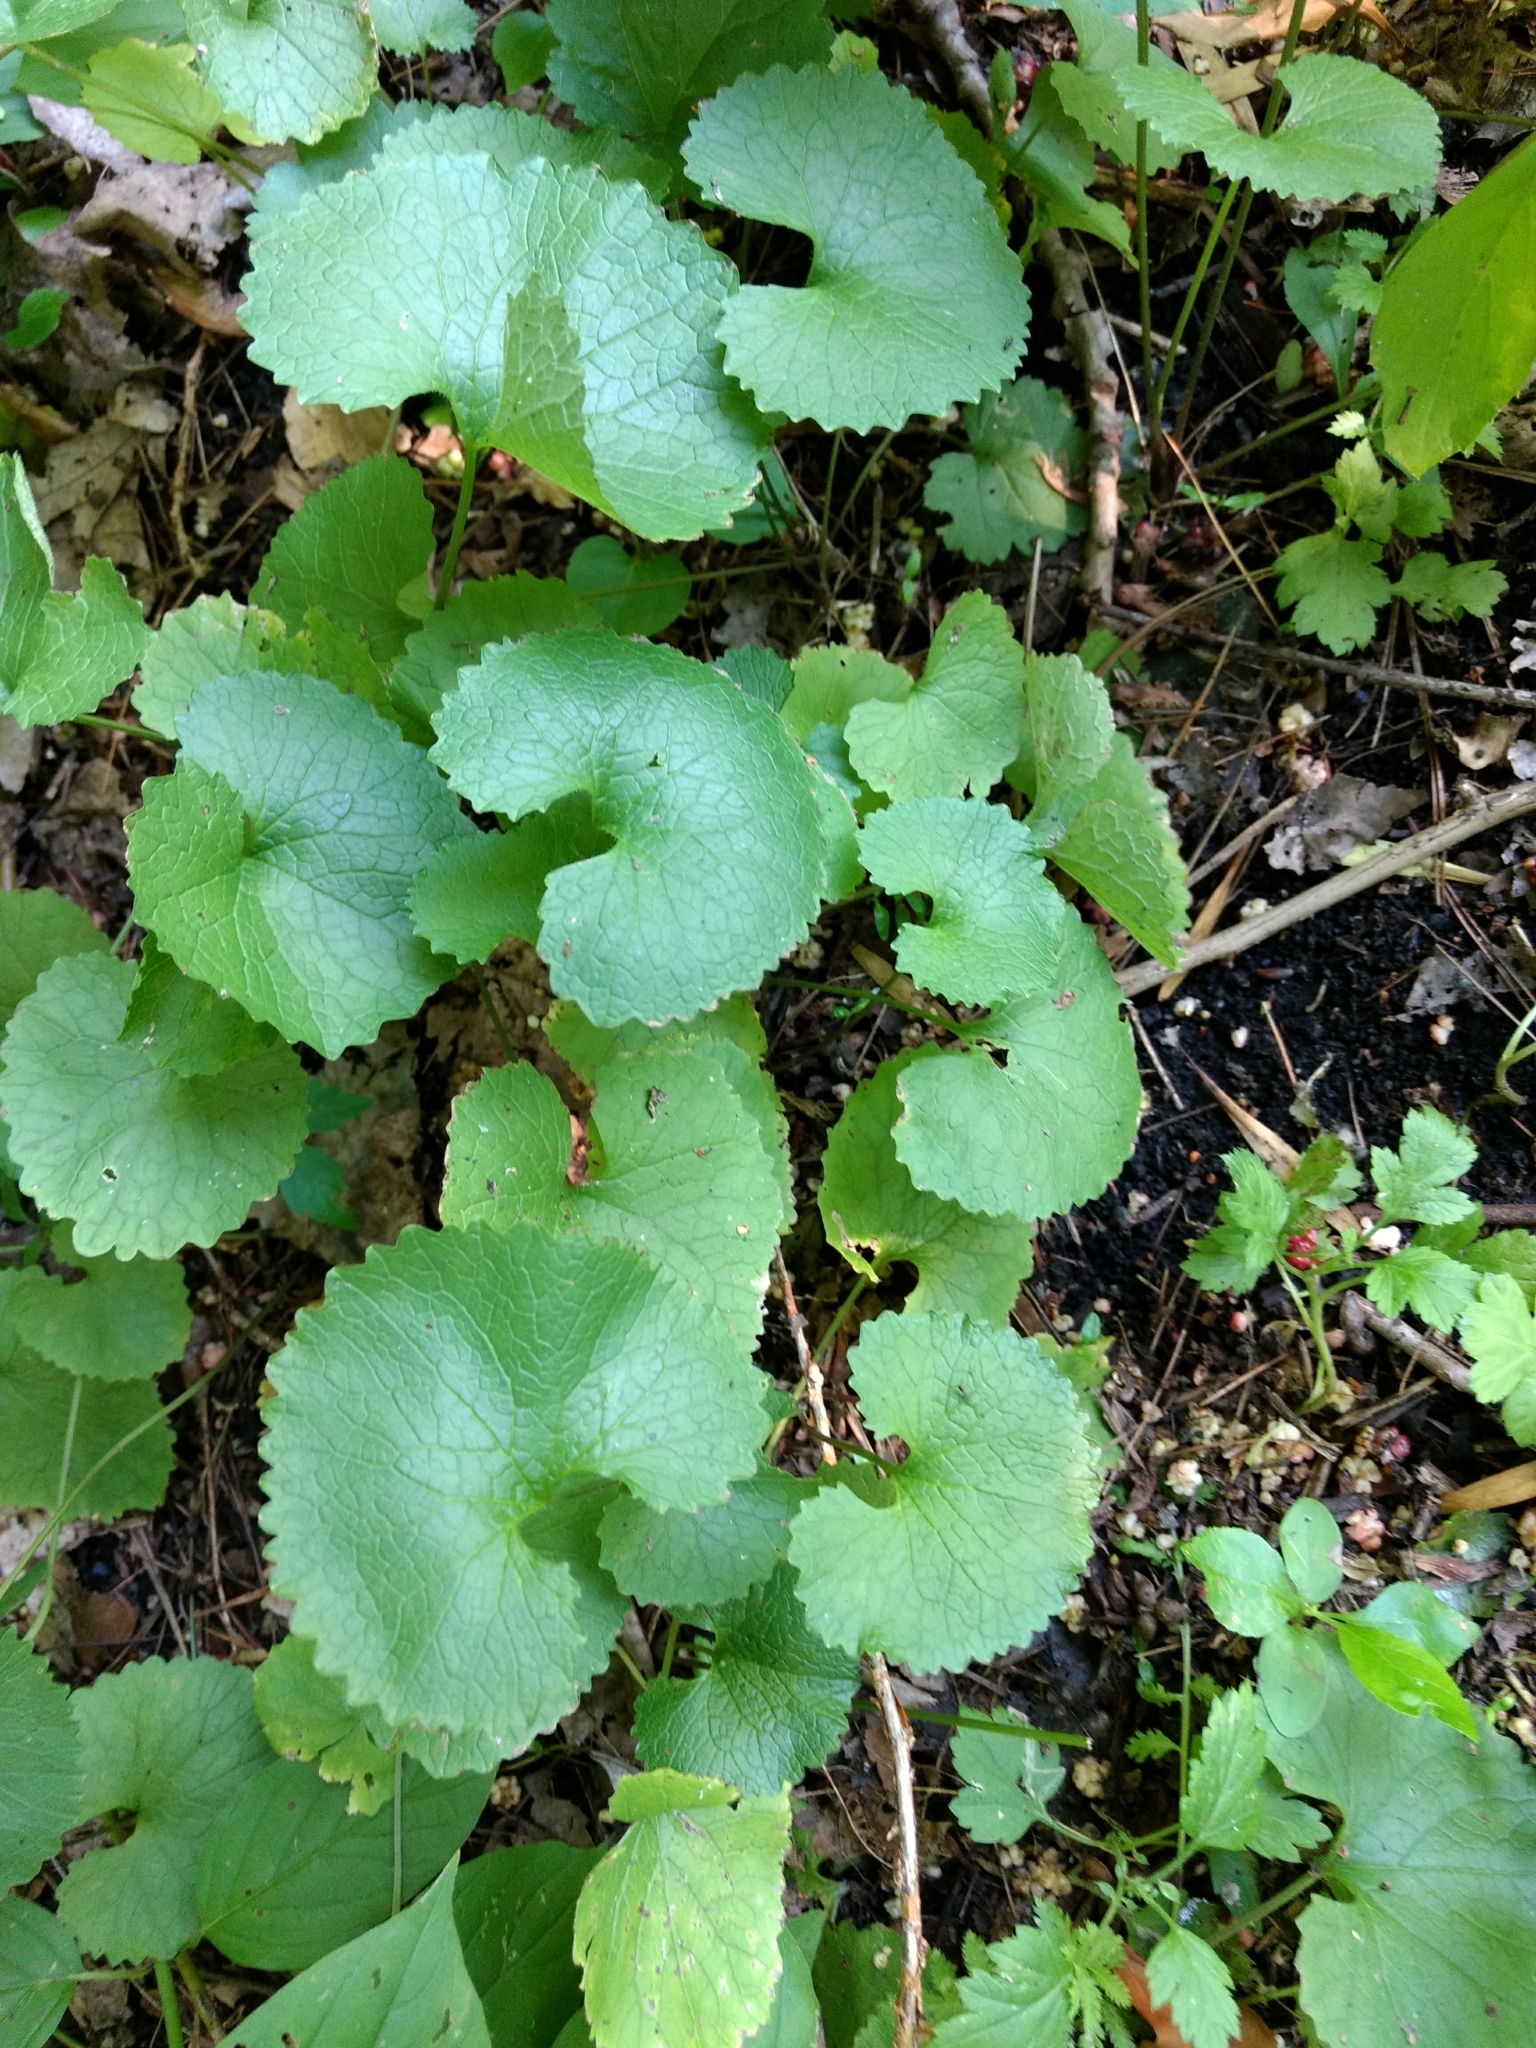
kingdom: Plantae
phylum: Tracheophyta
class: Magnoliopsida
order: Brassicales
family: Brassicaceae
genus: Alliaria
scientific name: Alliaria petiolata
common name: Garlic mustard
